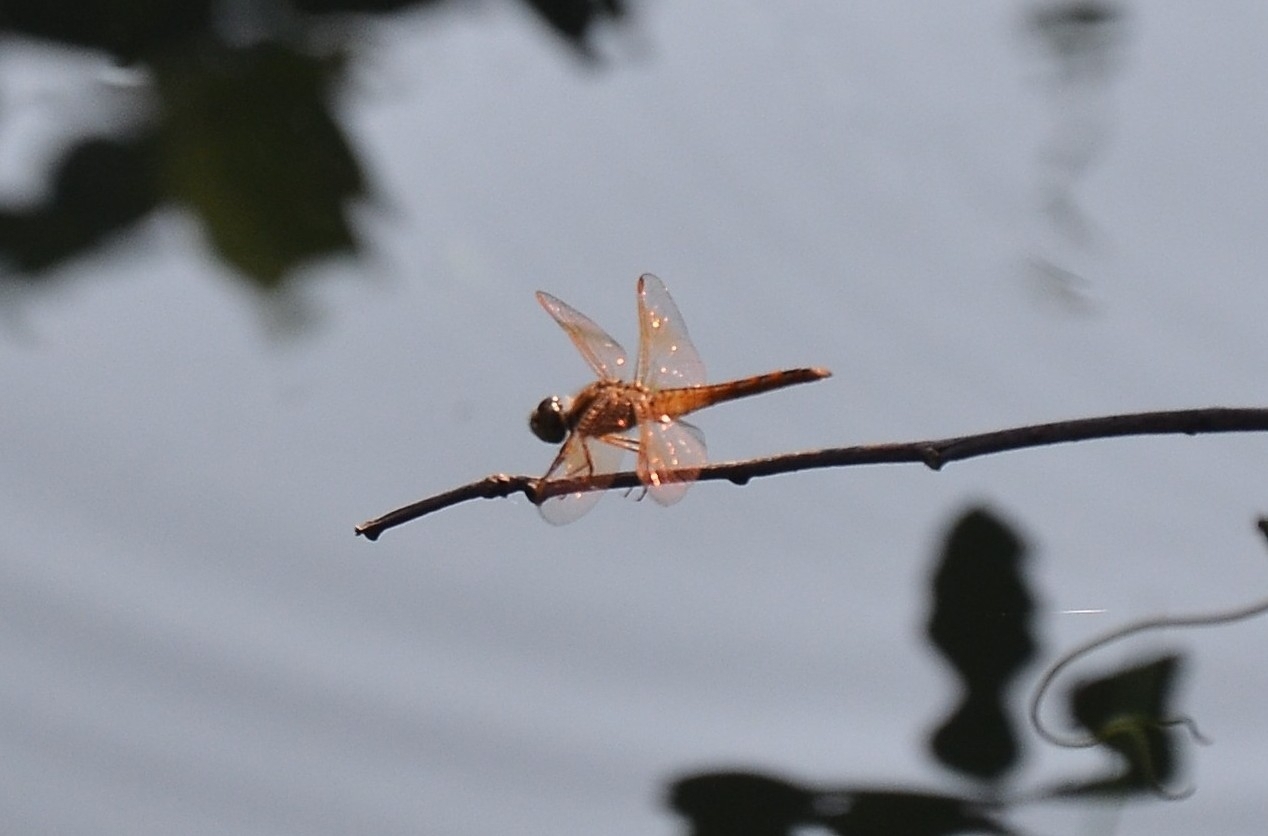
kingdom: Animalia
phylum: Arthropoda
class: Insecta
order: Odonata
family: Libellulidae
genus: Brachythemis
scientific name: Brachythemis contaminata
